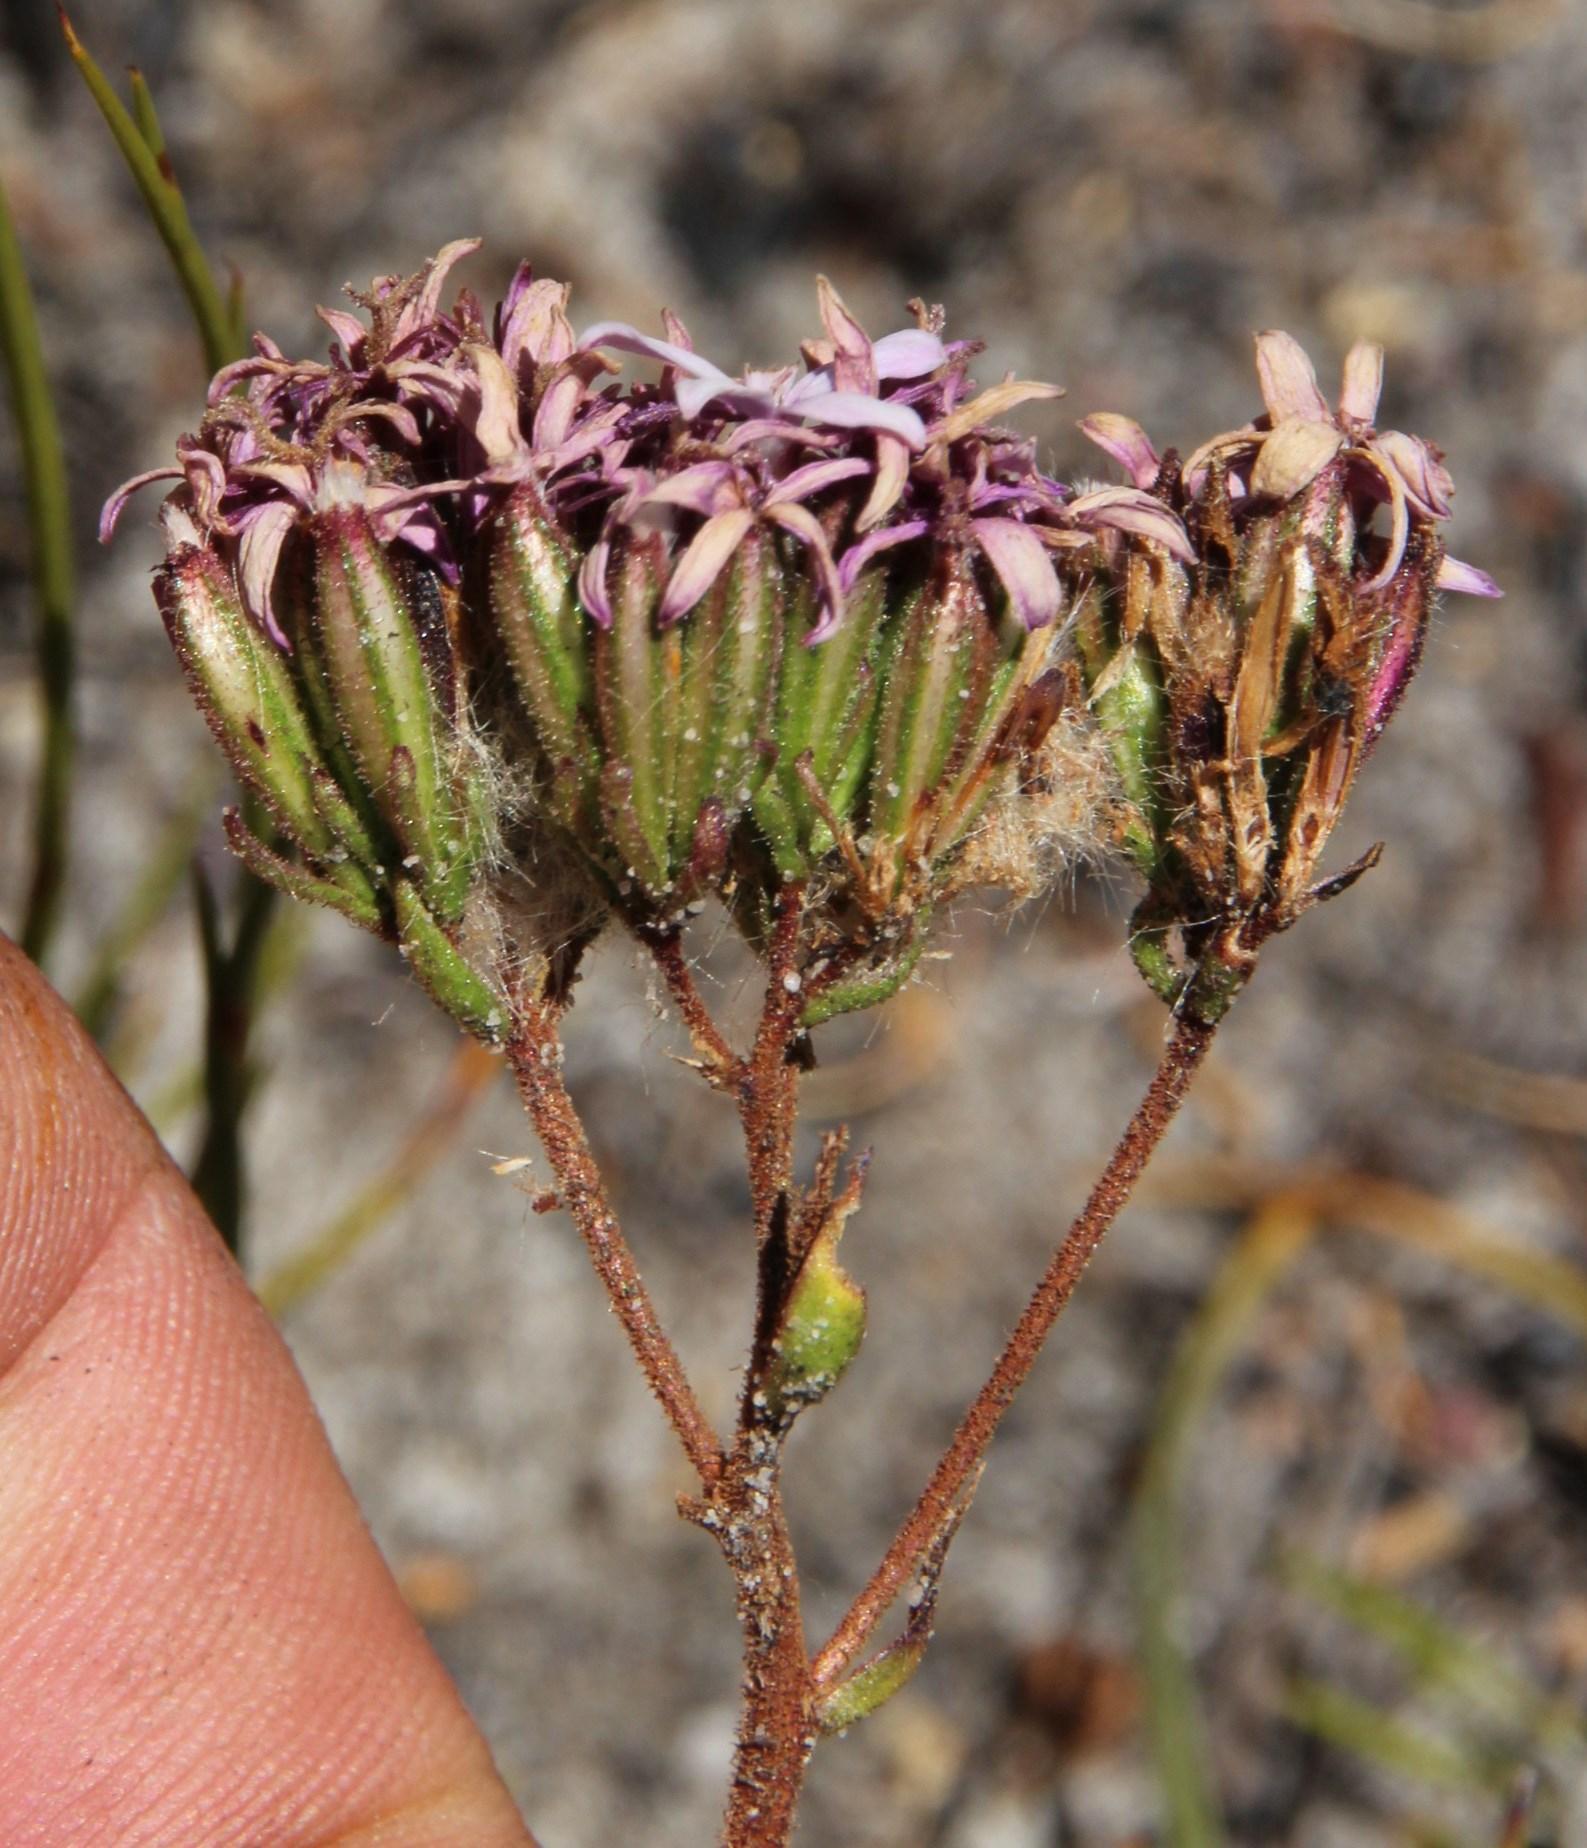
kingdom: Plantae
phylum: Tracheophyta
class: Magnoliopsida
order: Asterales
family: Asteraceae
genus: Corymbium
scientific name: Corymbium africanum
